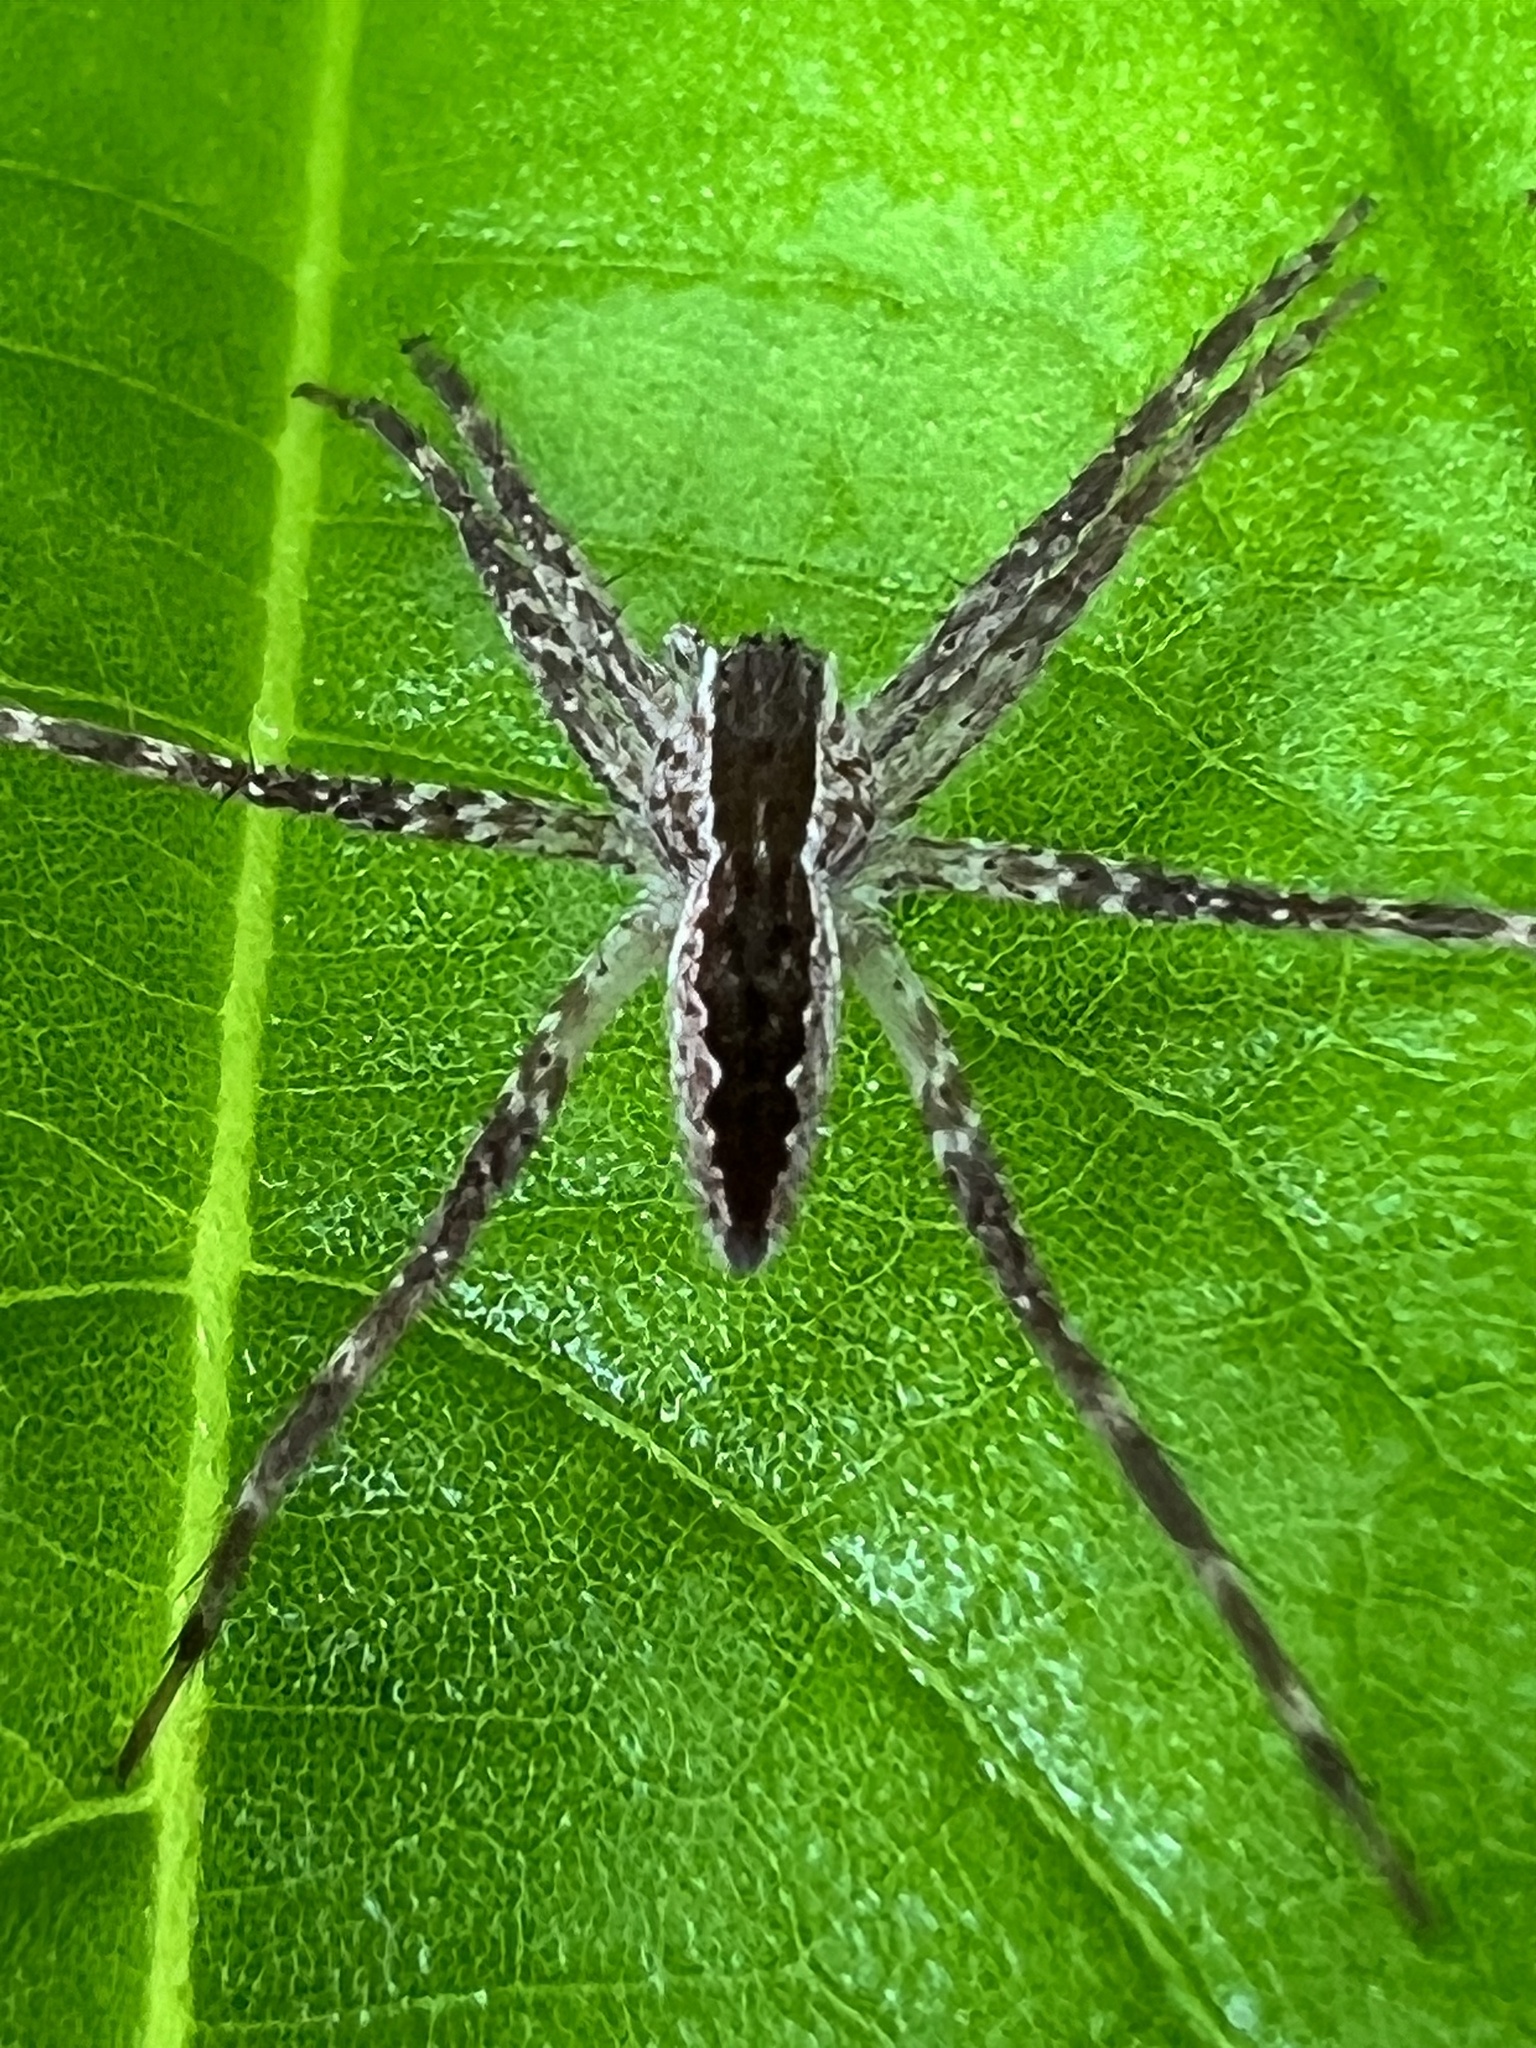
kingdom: Animalia
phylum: Arthropoda
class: Arachnida
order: Araneae
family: Pisauridae
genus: Pisaurina
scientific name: Pisaurina mira
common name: American nursery web spider
